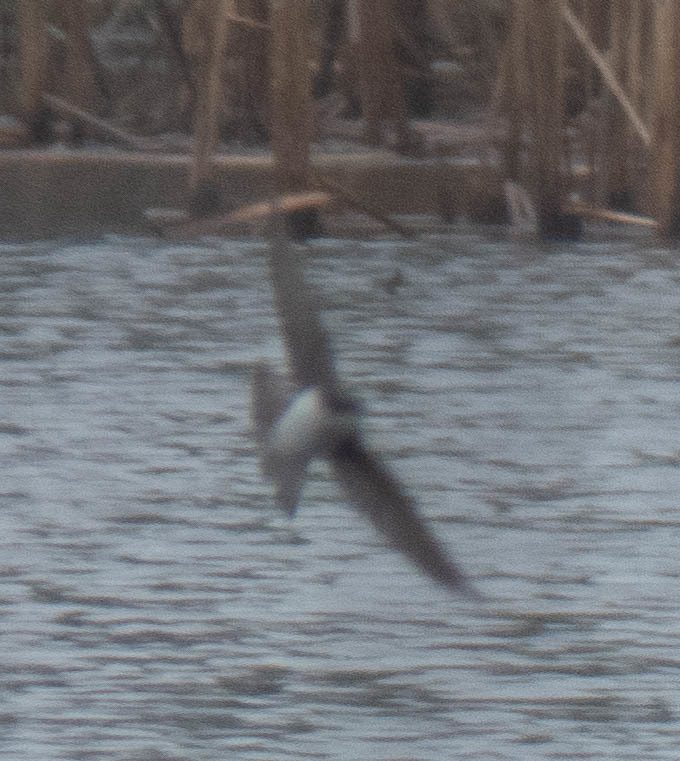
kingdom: Animalia
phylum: Chordata
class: Aves
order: Passeriformes
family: Hirundinidae
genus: Stelgidopteryx
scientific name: Stelgidopteryx serripennis
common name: Northern rough-winged swallow
